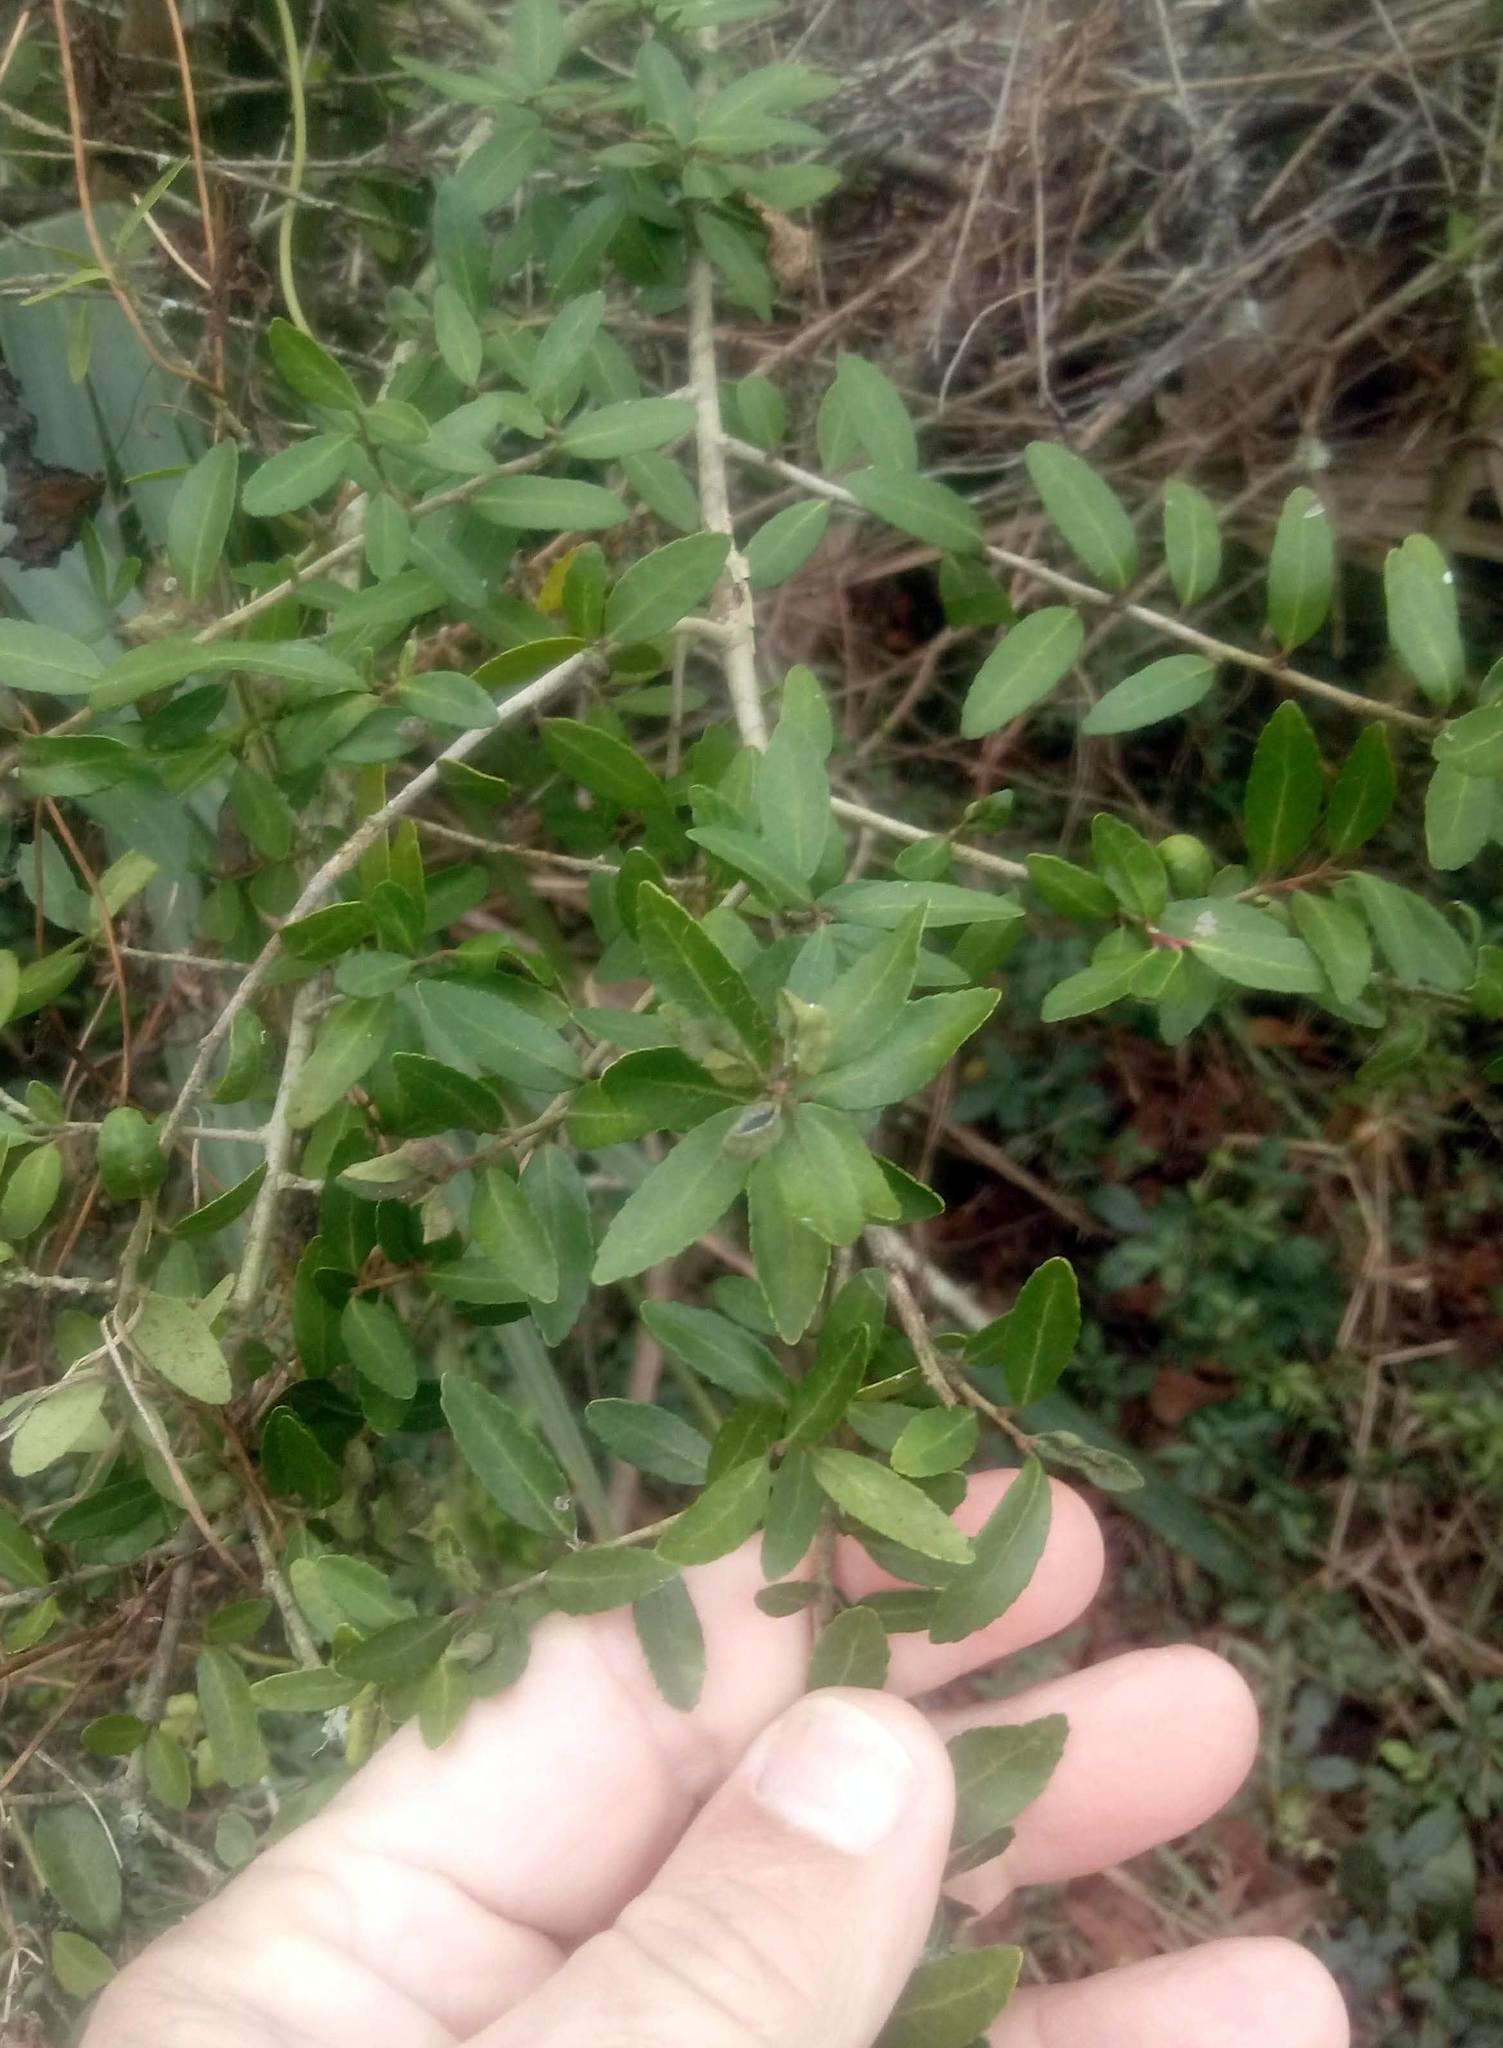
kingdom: Plantae
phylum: Tracheophyta
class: Magnoliopsida
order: Aquifoliales
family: Aquifoliaceae
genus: Ilex
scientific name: Ilex vomitoria
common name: Yaupon holly
